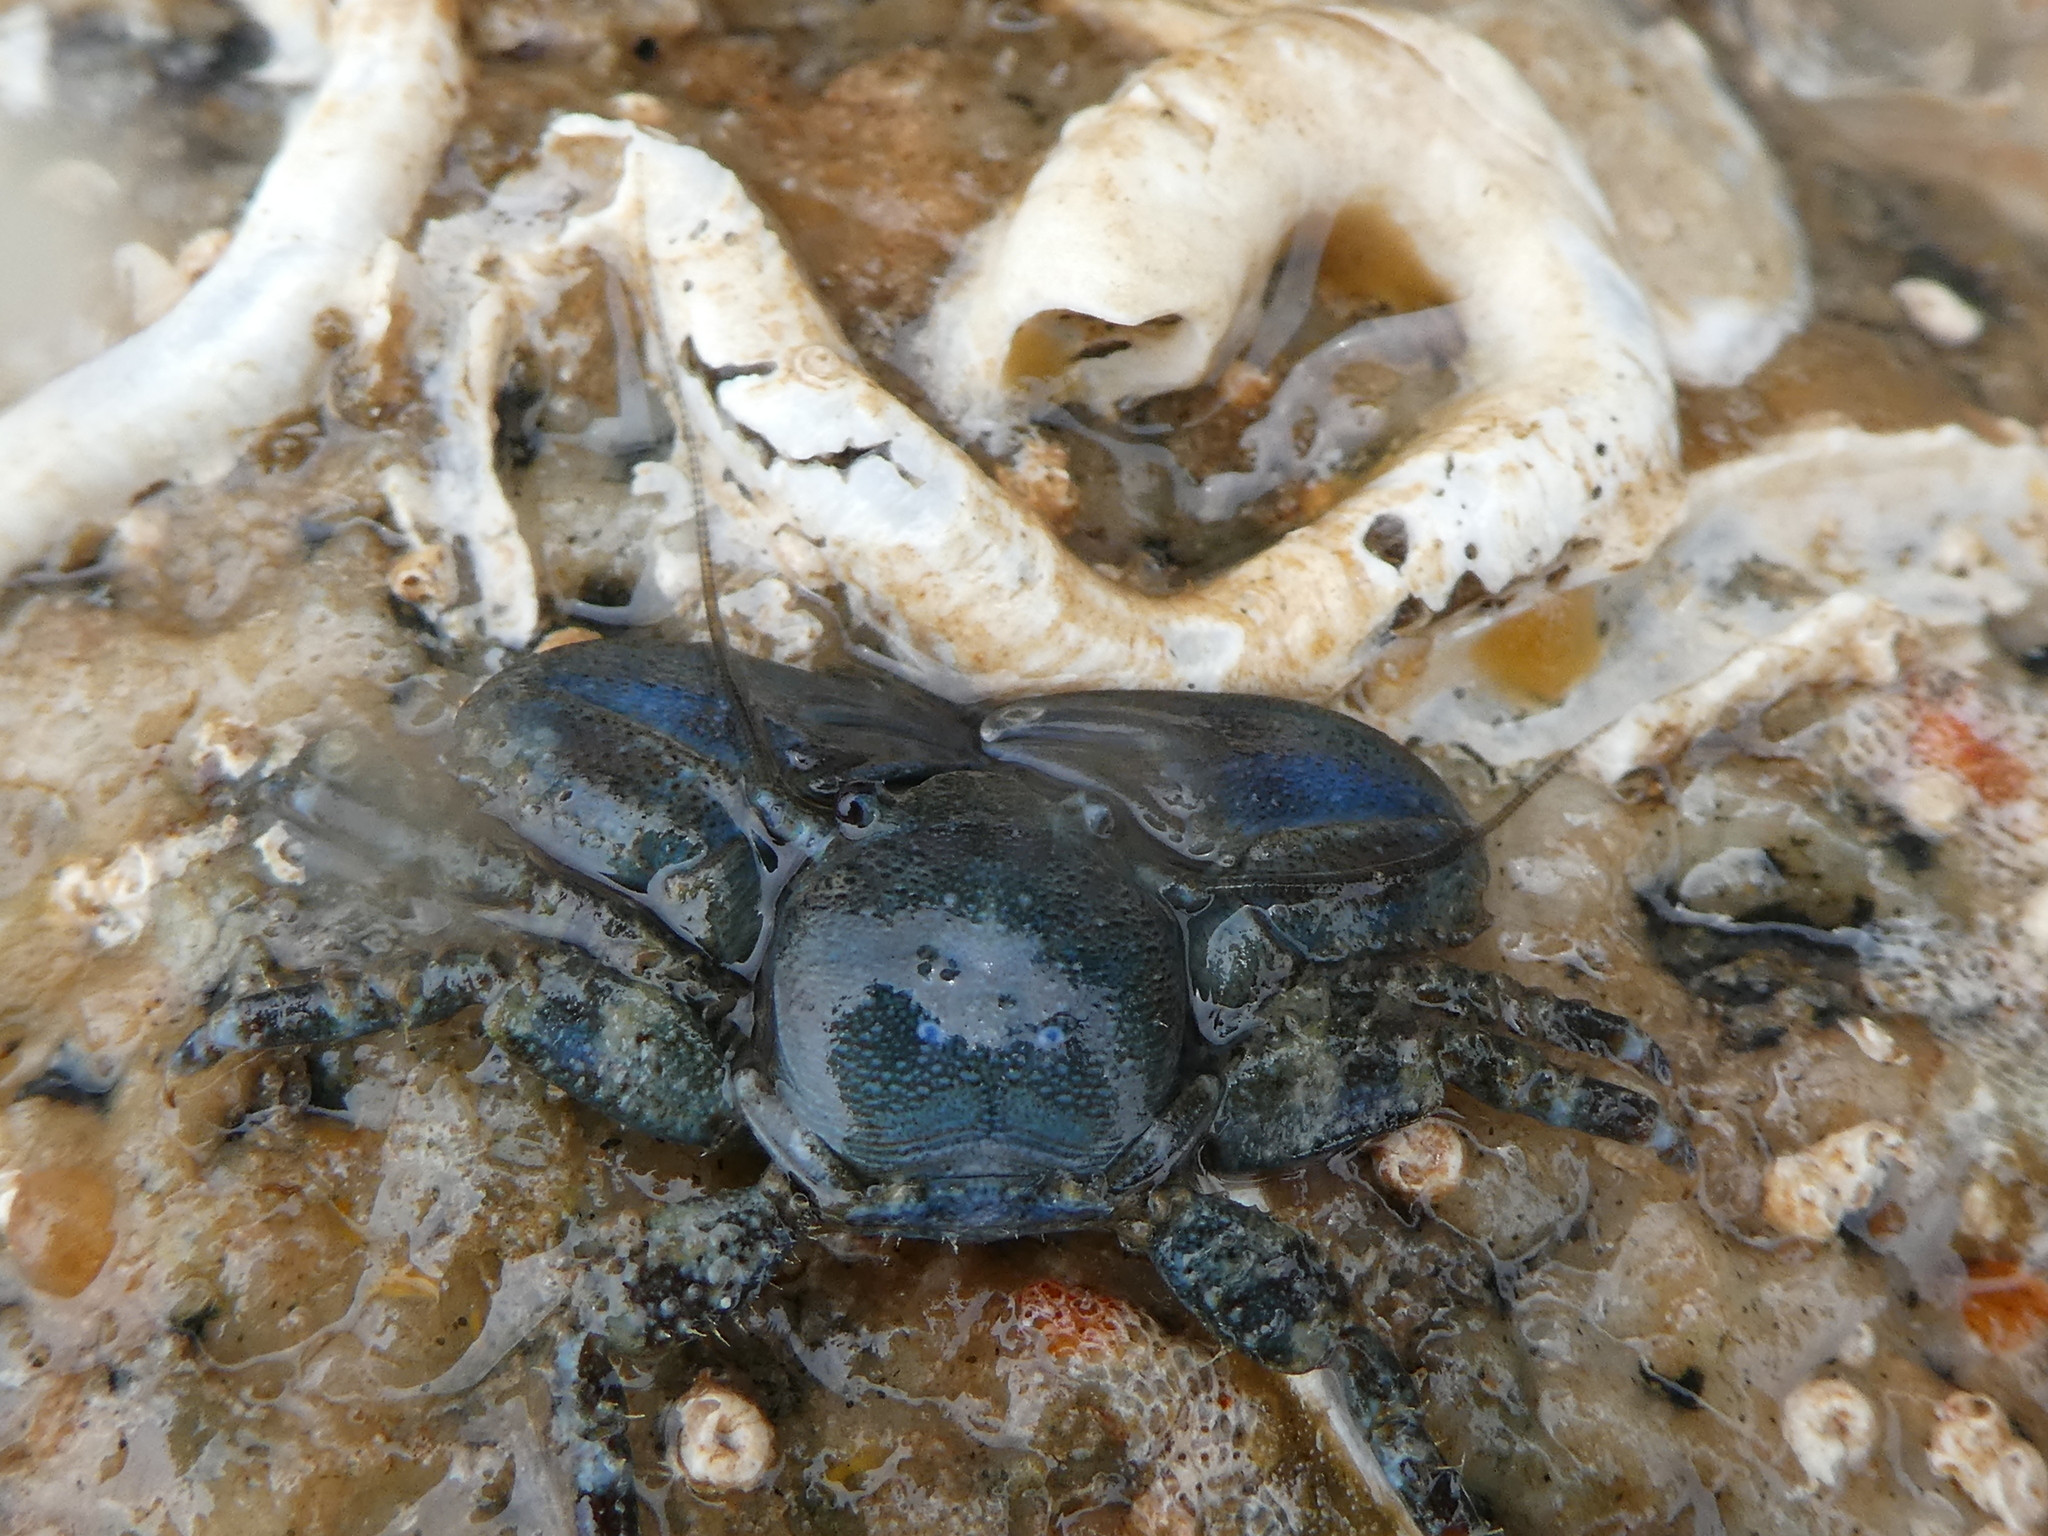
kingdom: Animalia
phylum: Arthropoda
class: Malacostraca
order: Decapoda
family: Porcellanidae
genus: Petrolisthes
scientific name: Petrolisthes eriomerus
